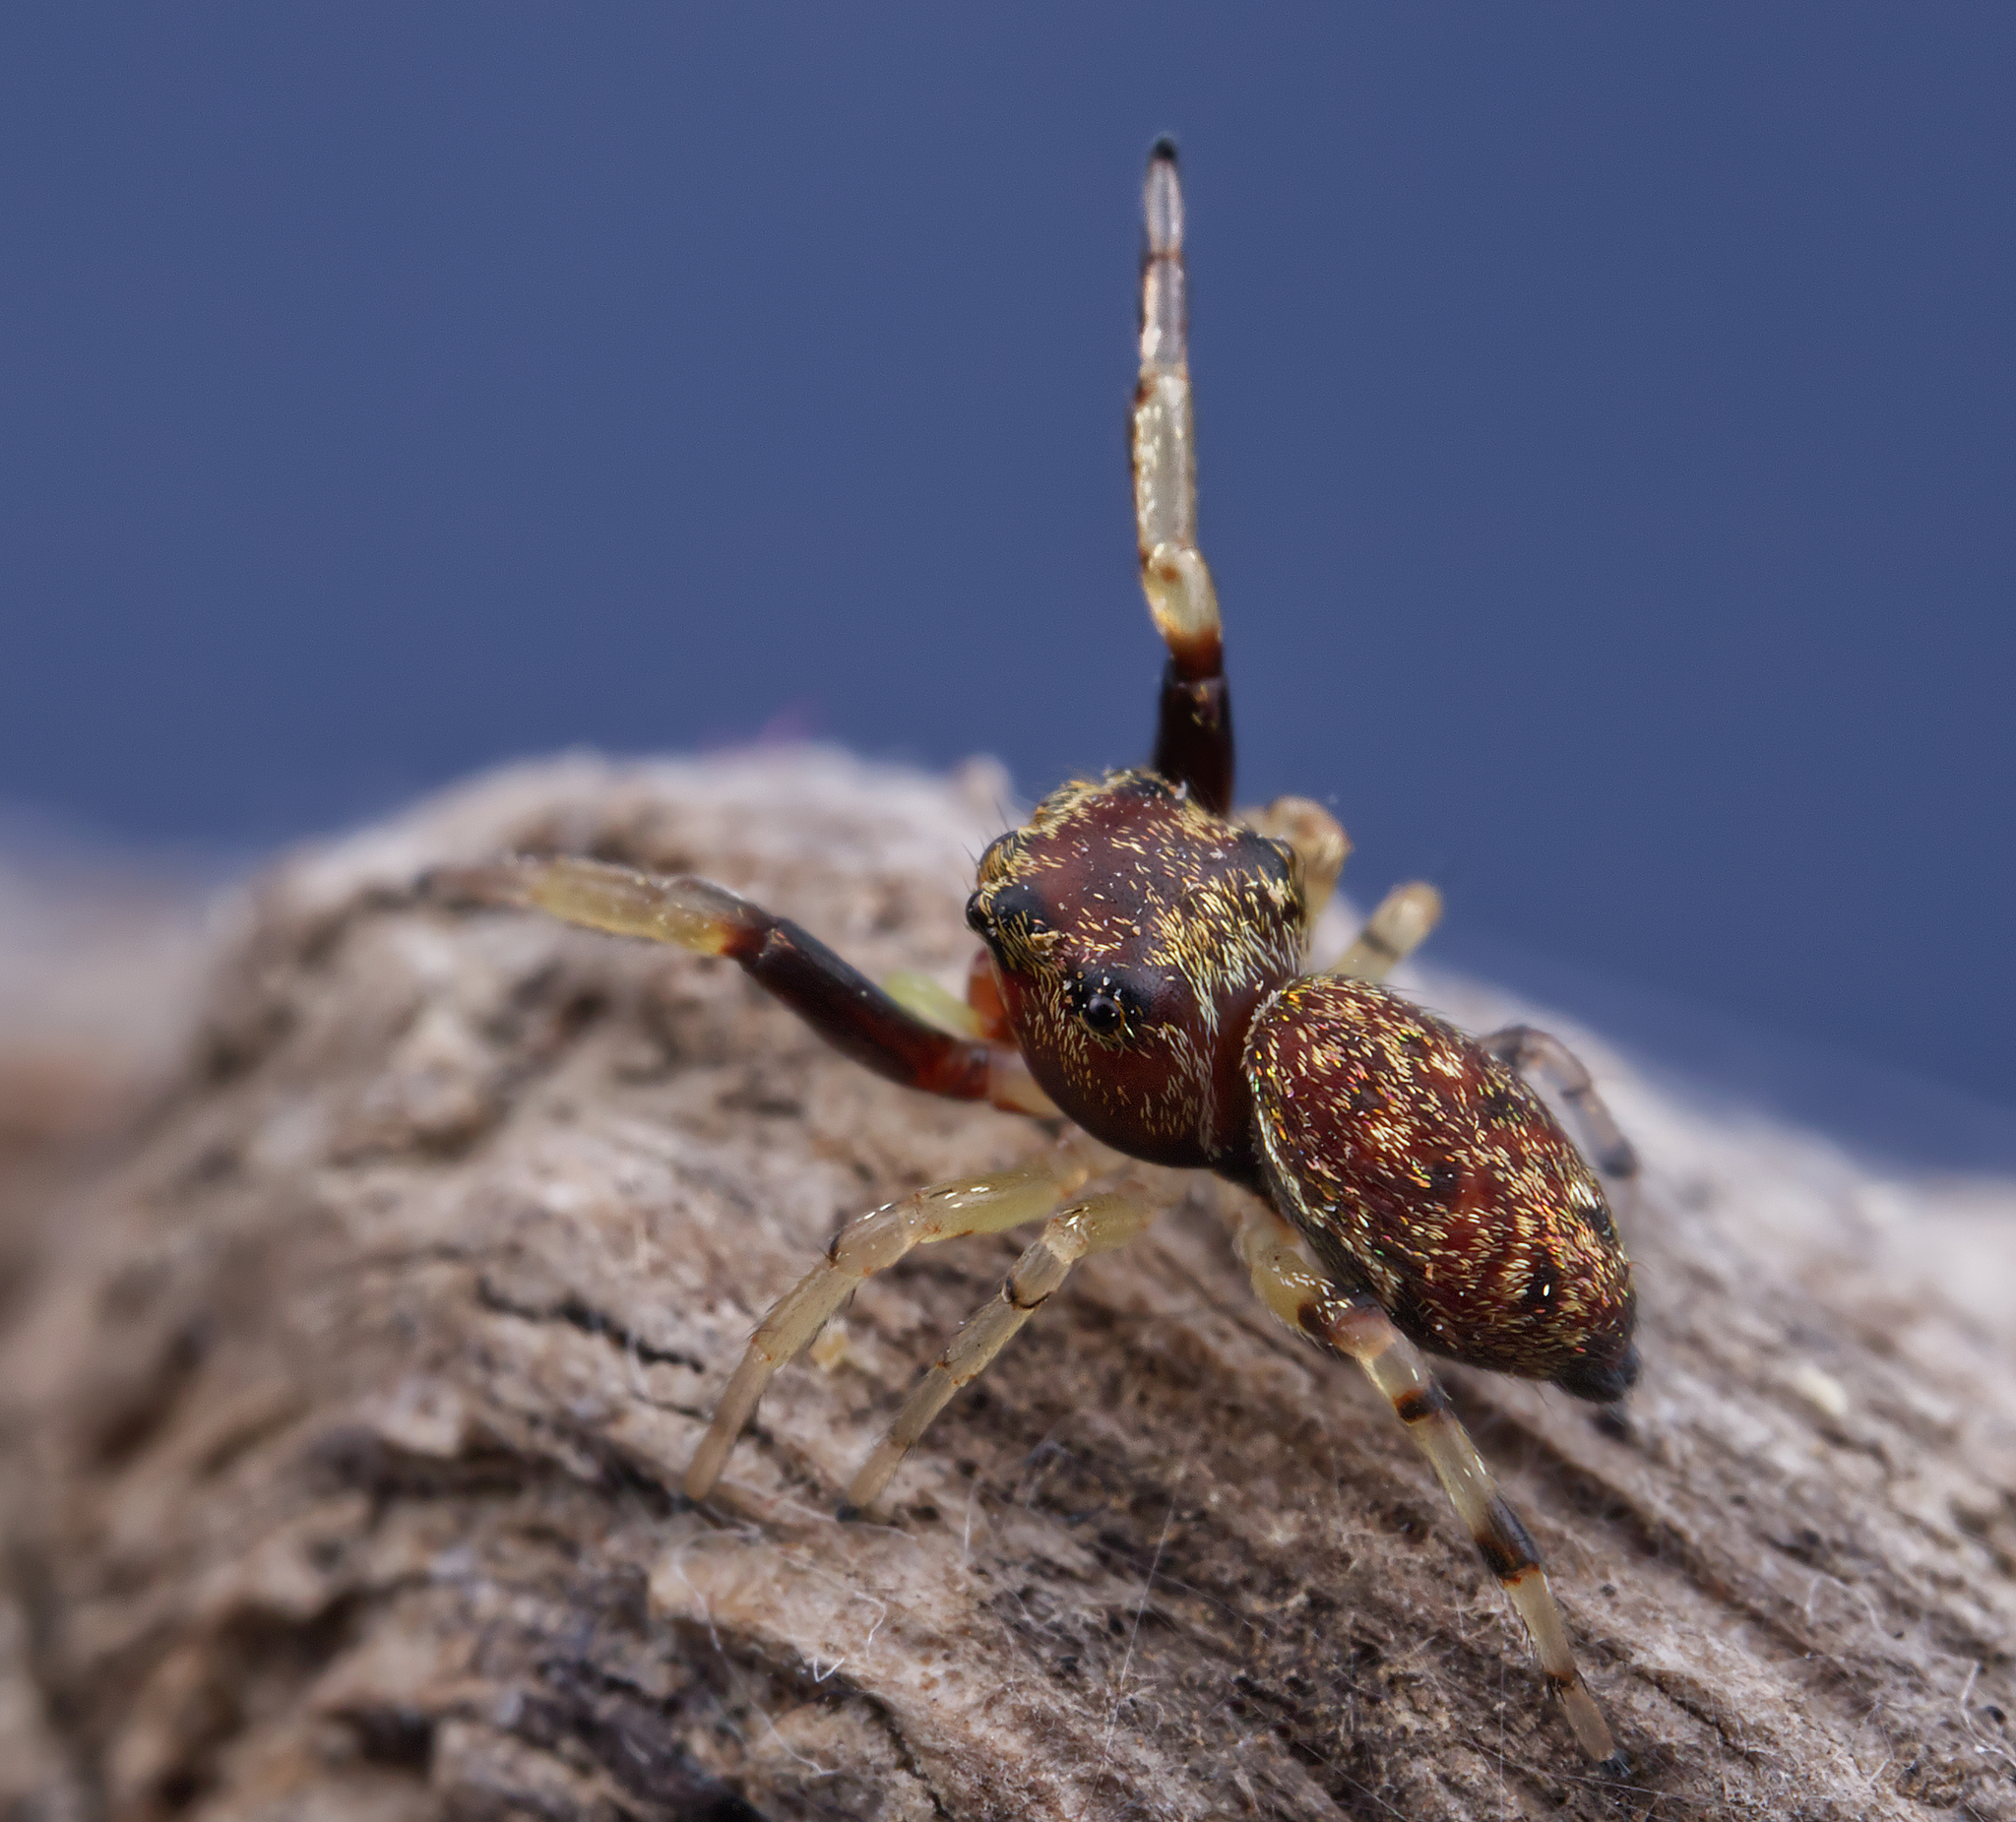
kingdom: Animalia
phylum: Arthropoda
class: Arachnida
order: Araneae
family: Salticidae
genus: Zygoballus
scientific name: Zygoballus rufipes
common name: Jumping spiders
